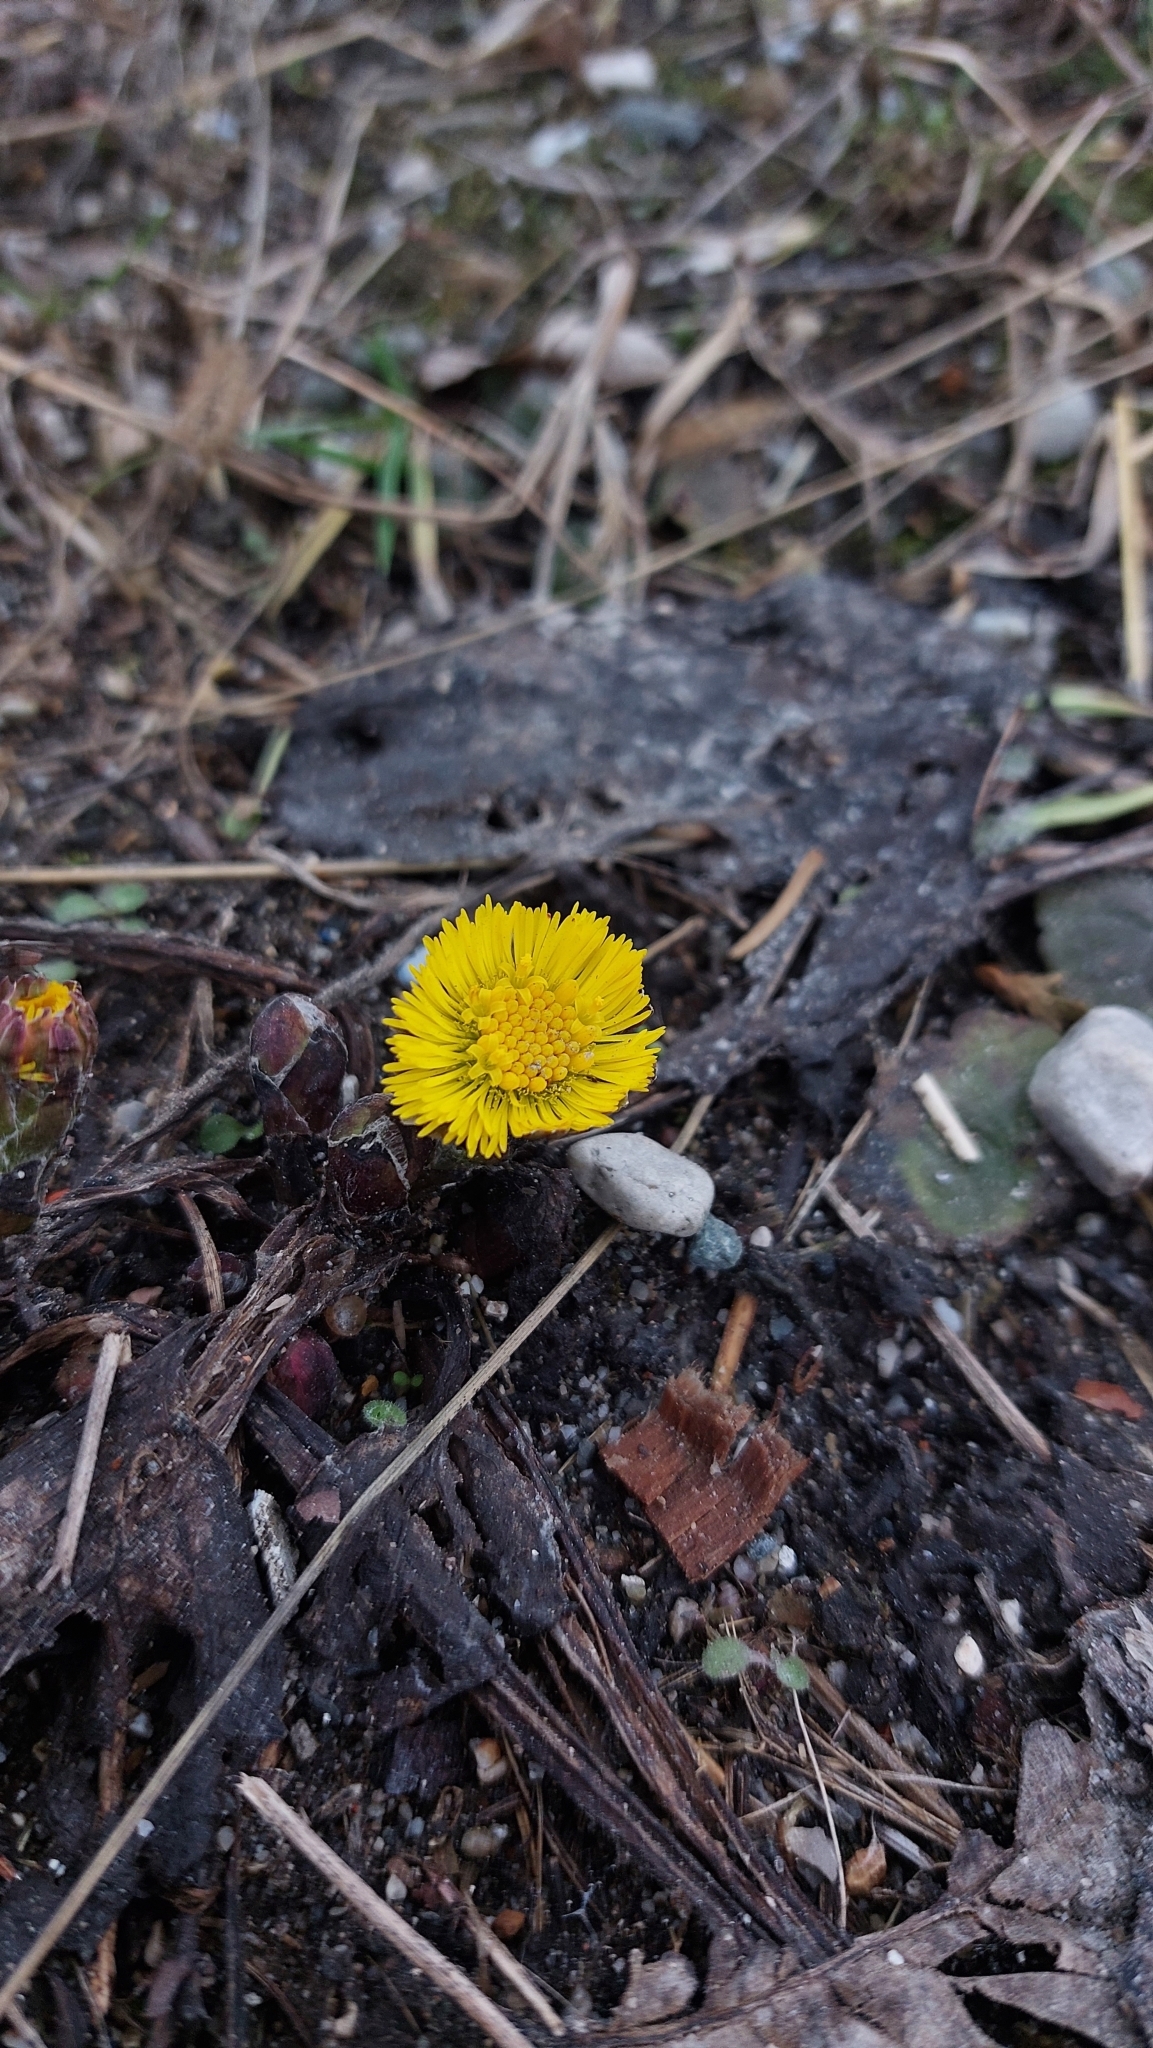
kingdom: Plantae
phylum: Tracheophyta
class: Magnoliopsida
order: Asterales
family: Asteraceae
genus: Tussilago
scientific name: Tussilago farfara
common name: Coltsfoot
